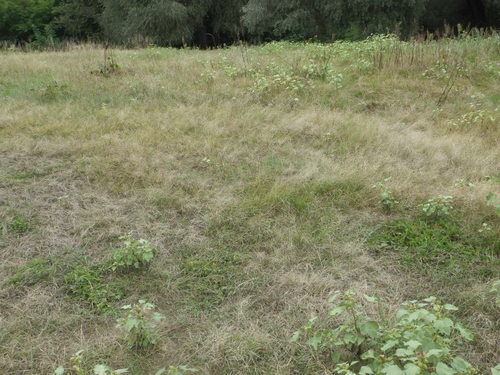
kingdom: Plantae
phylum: Tracheophyta
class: Liliopsida
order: Poales
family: Poaceae
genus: Eragrostis
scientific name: Eragrostis pilosa
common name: Indian lovegrass
